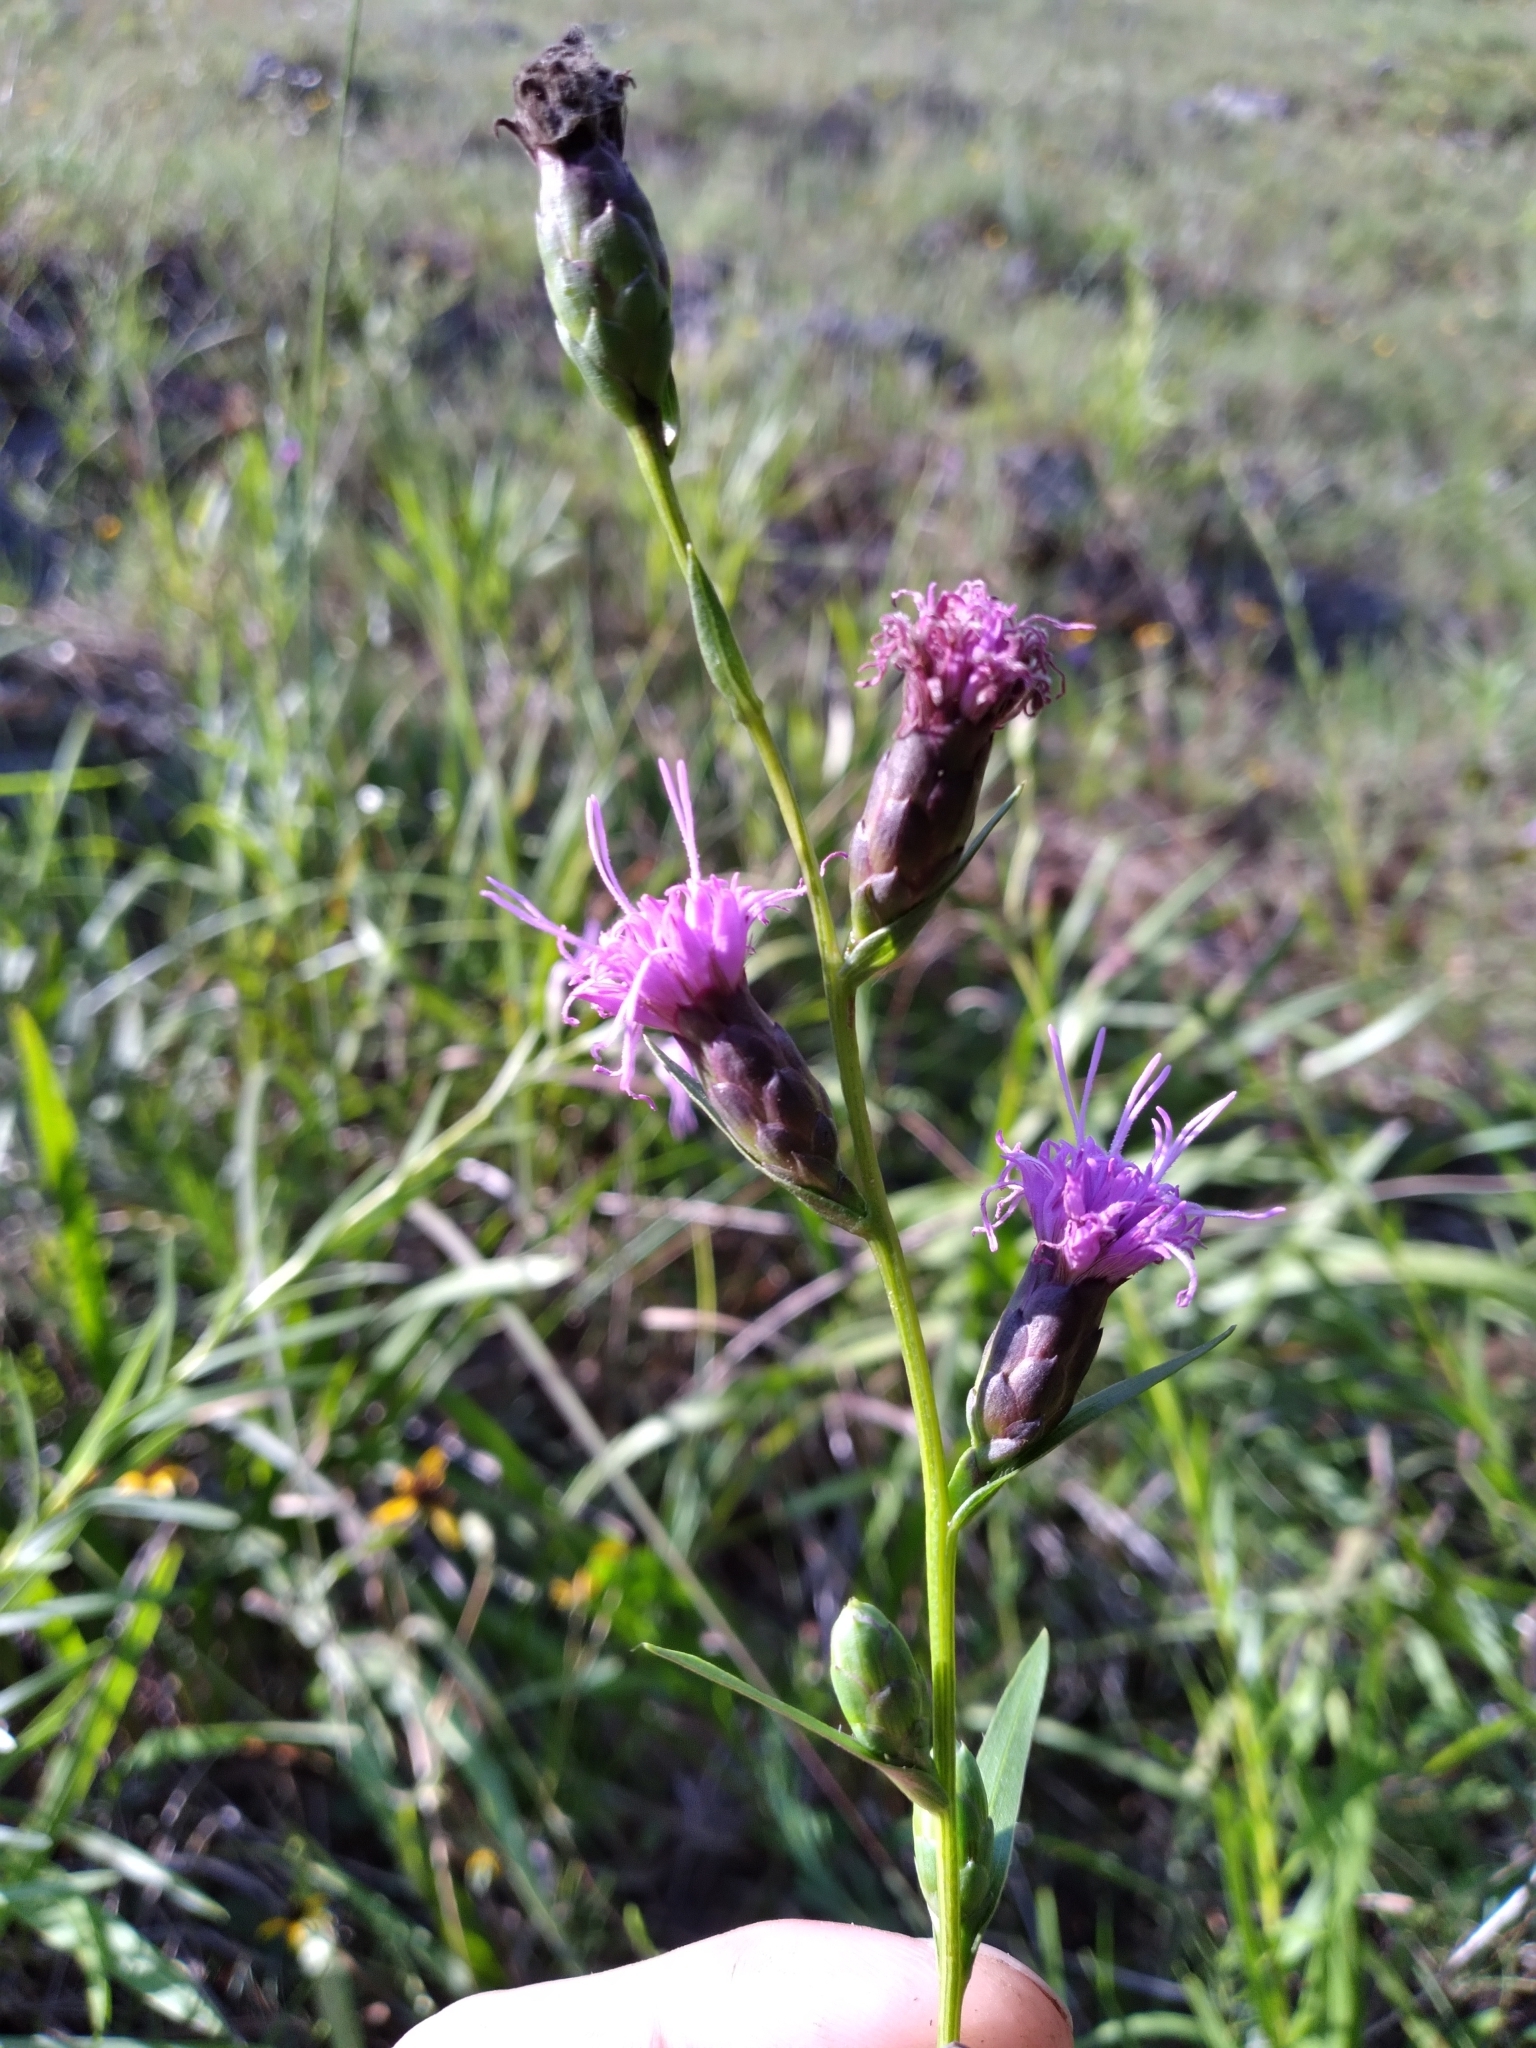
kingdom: Plantae
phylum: Tracheophyta
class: Magnoliopsida
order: Asterales
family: Asteraceae
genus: Liatris
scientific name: Liatris cylindracea
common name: Few-head blazingstar
